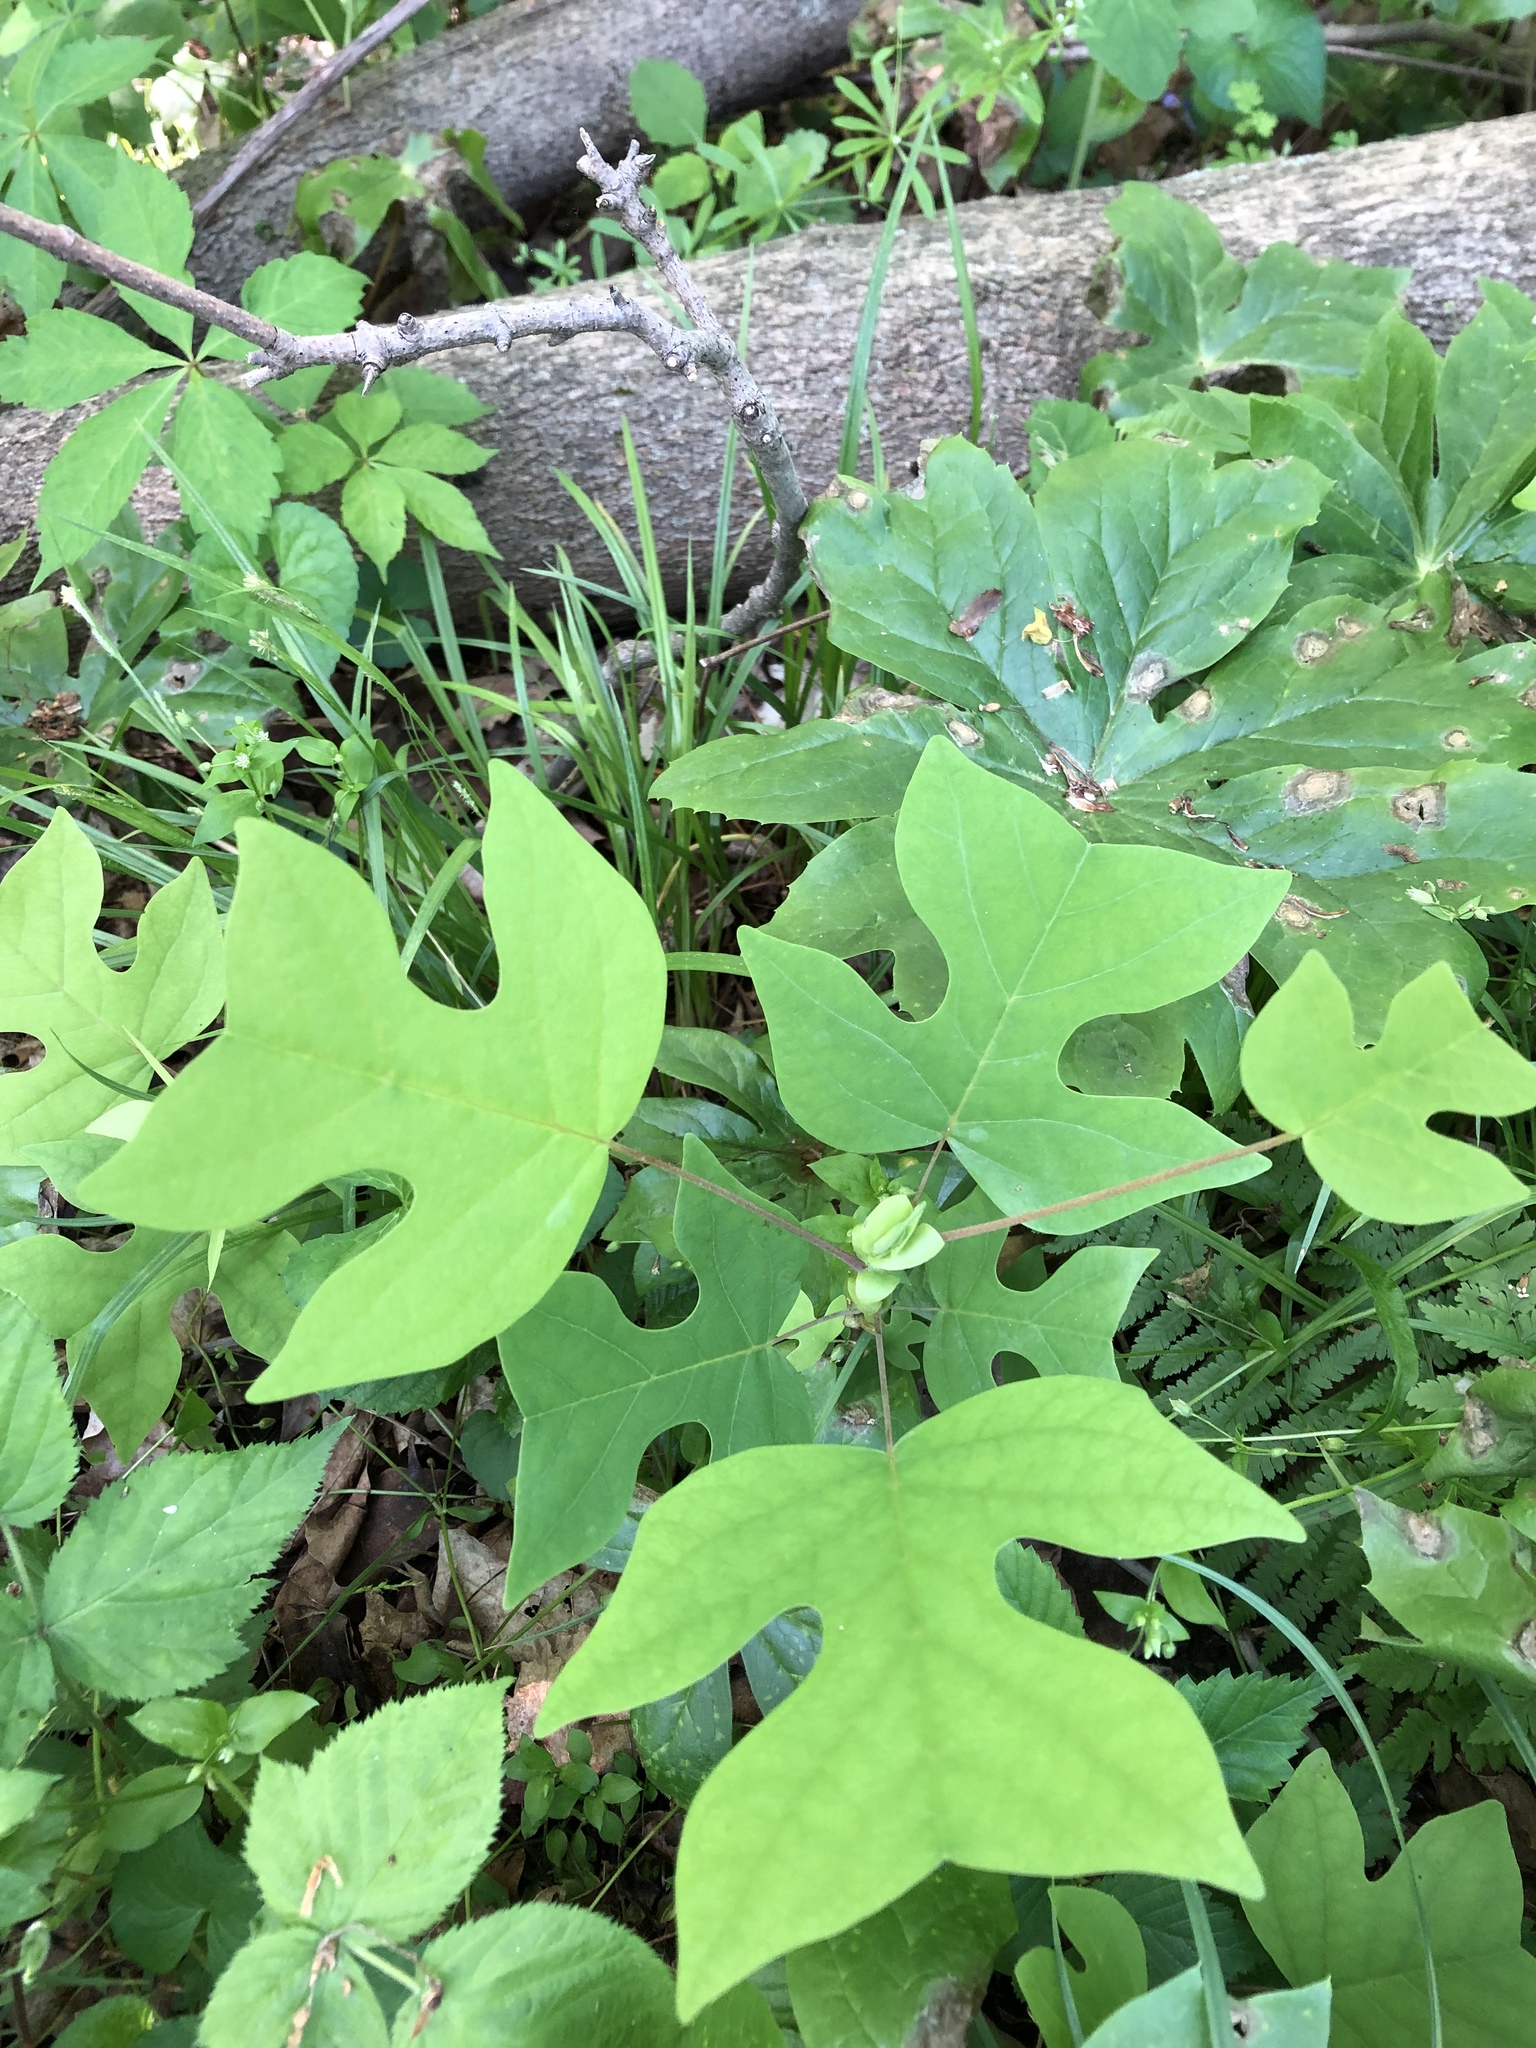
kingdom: Plantae
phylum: Tracheophyta
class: Magnoliopsida
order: Magnoliales
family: Magnoliaceae
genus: Liriodendron
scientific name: Liriodendron tulipifera
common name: Tulip tree
